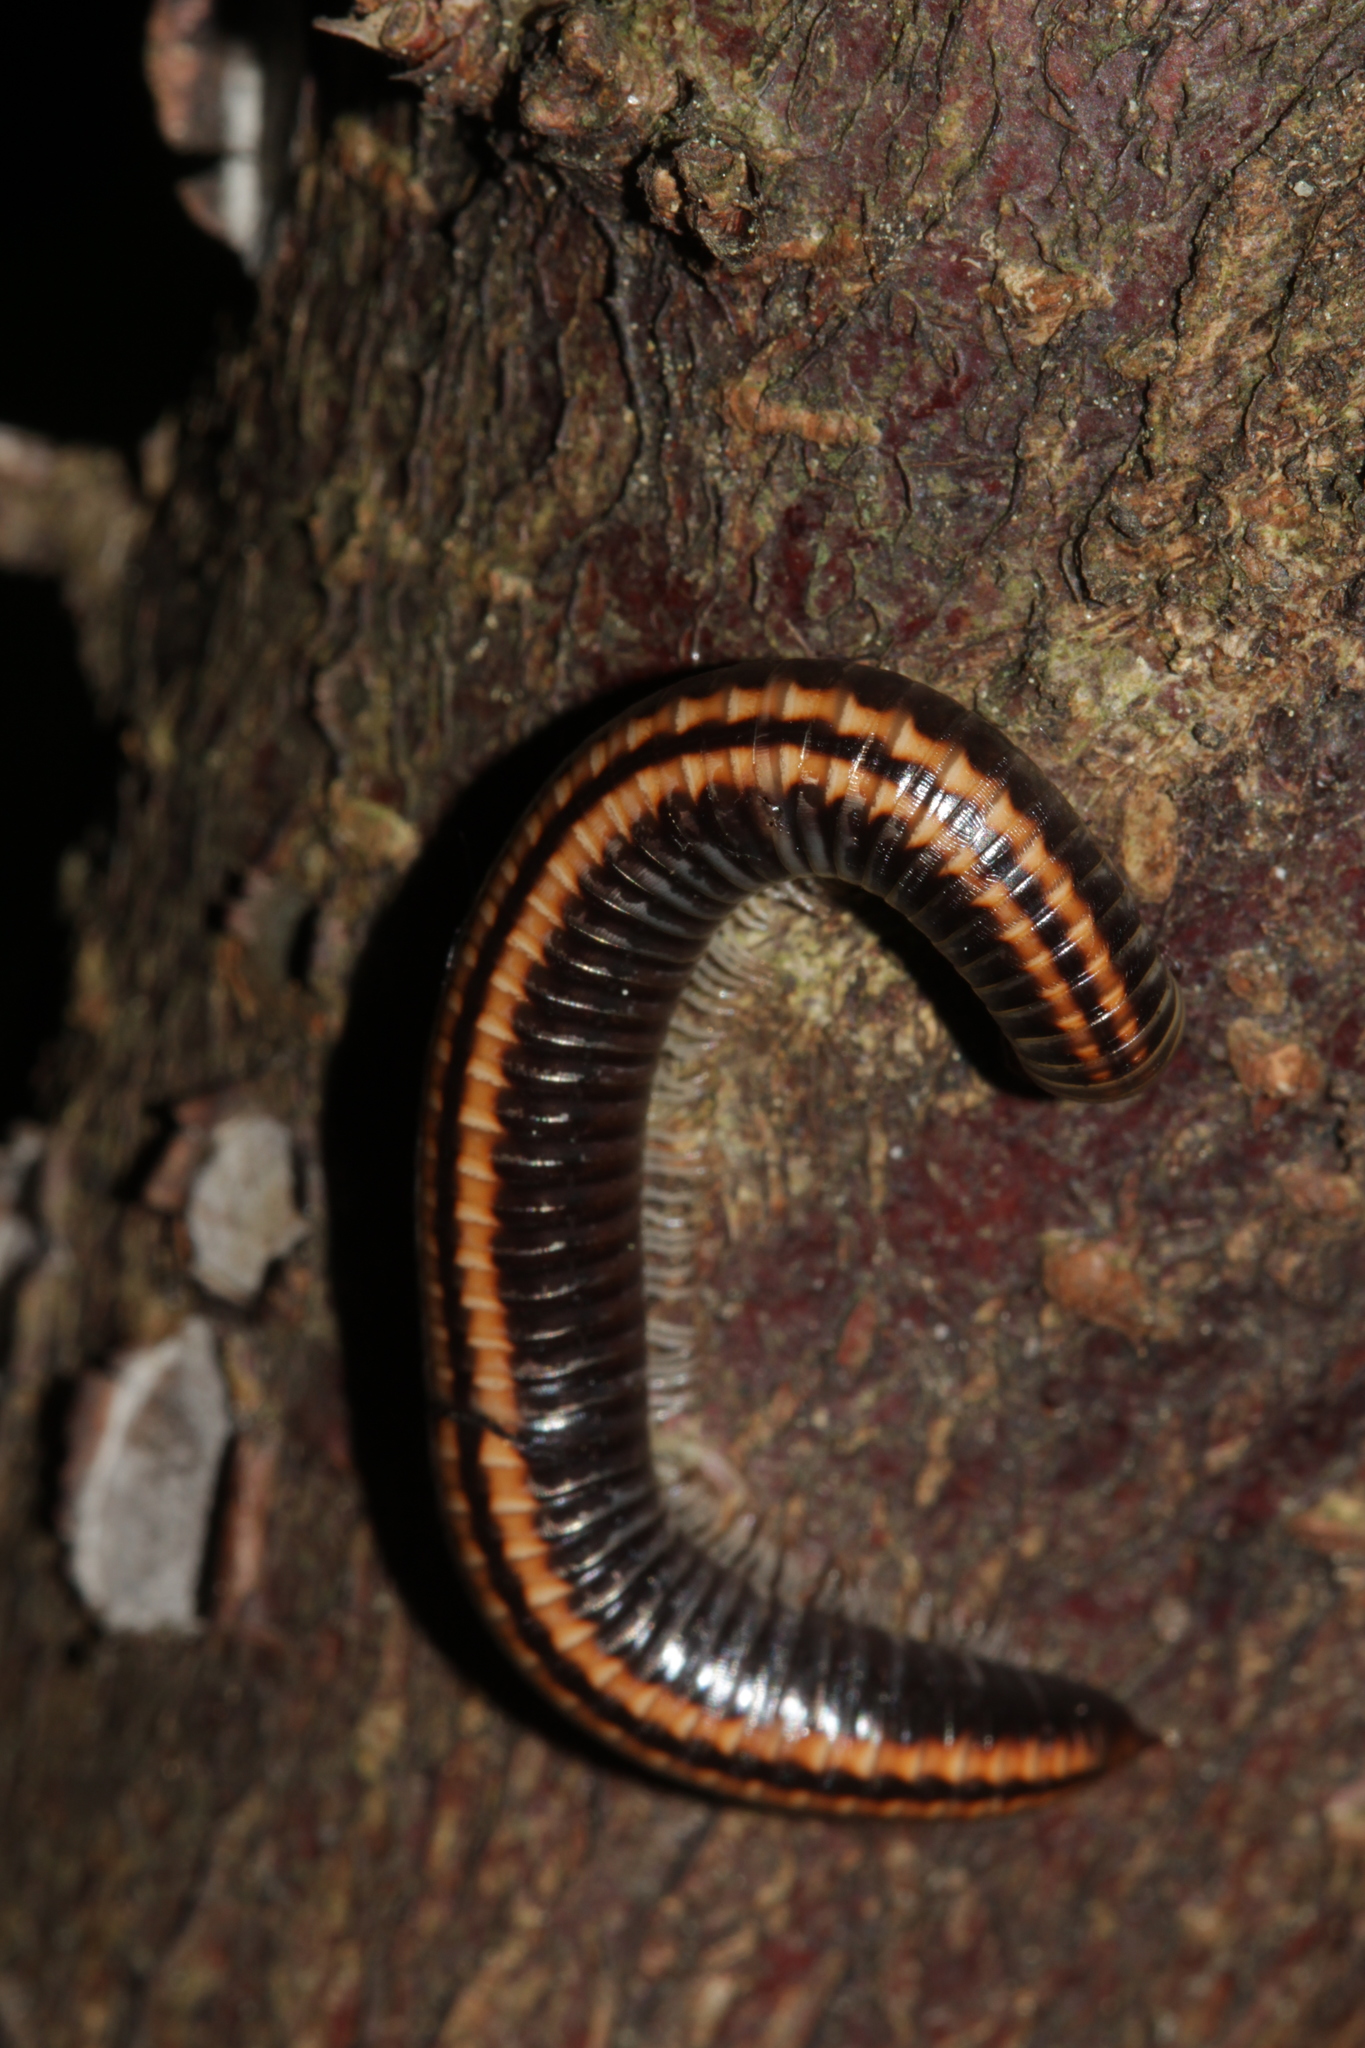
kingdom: Animalia
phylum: Arthropoda
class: Diplopoda
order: Julida
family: Julidae
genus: Ommatoiulus
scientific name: Ommatoiulus sabulosus
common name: Striped millipede
